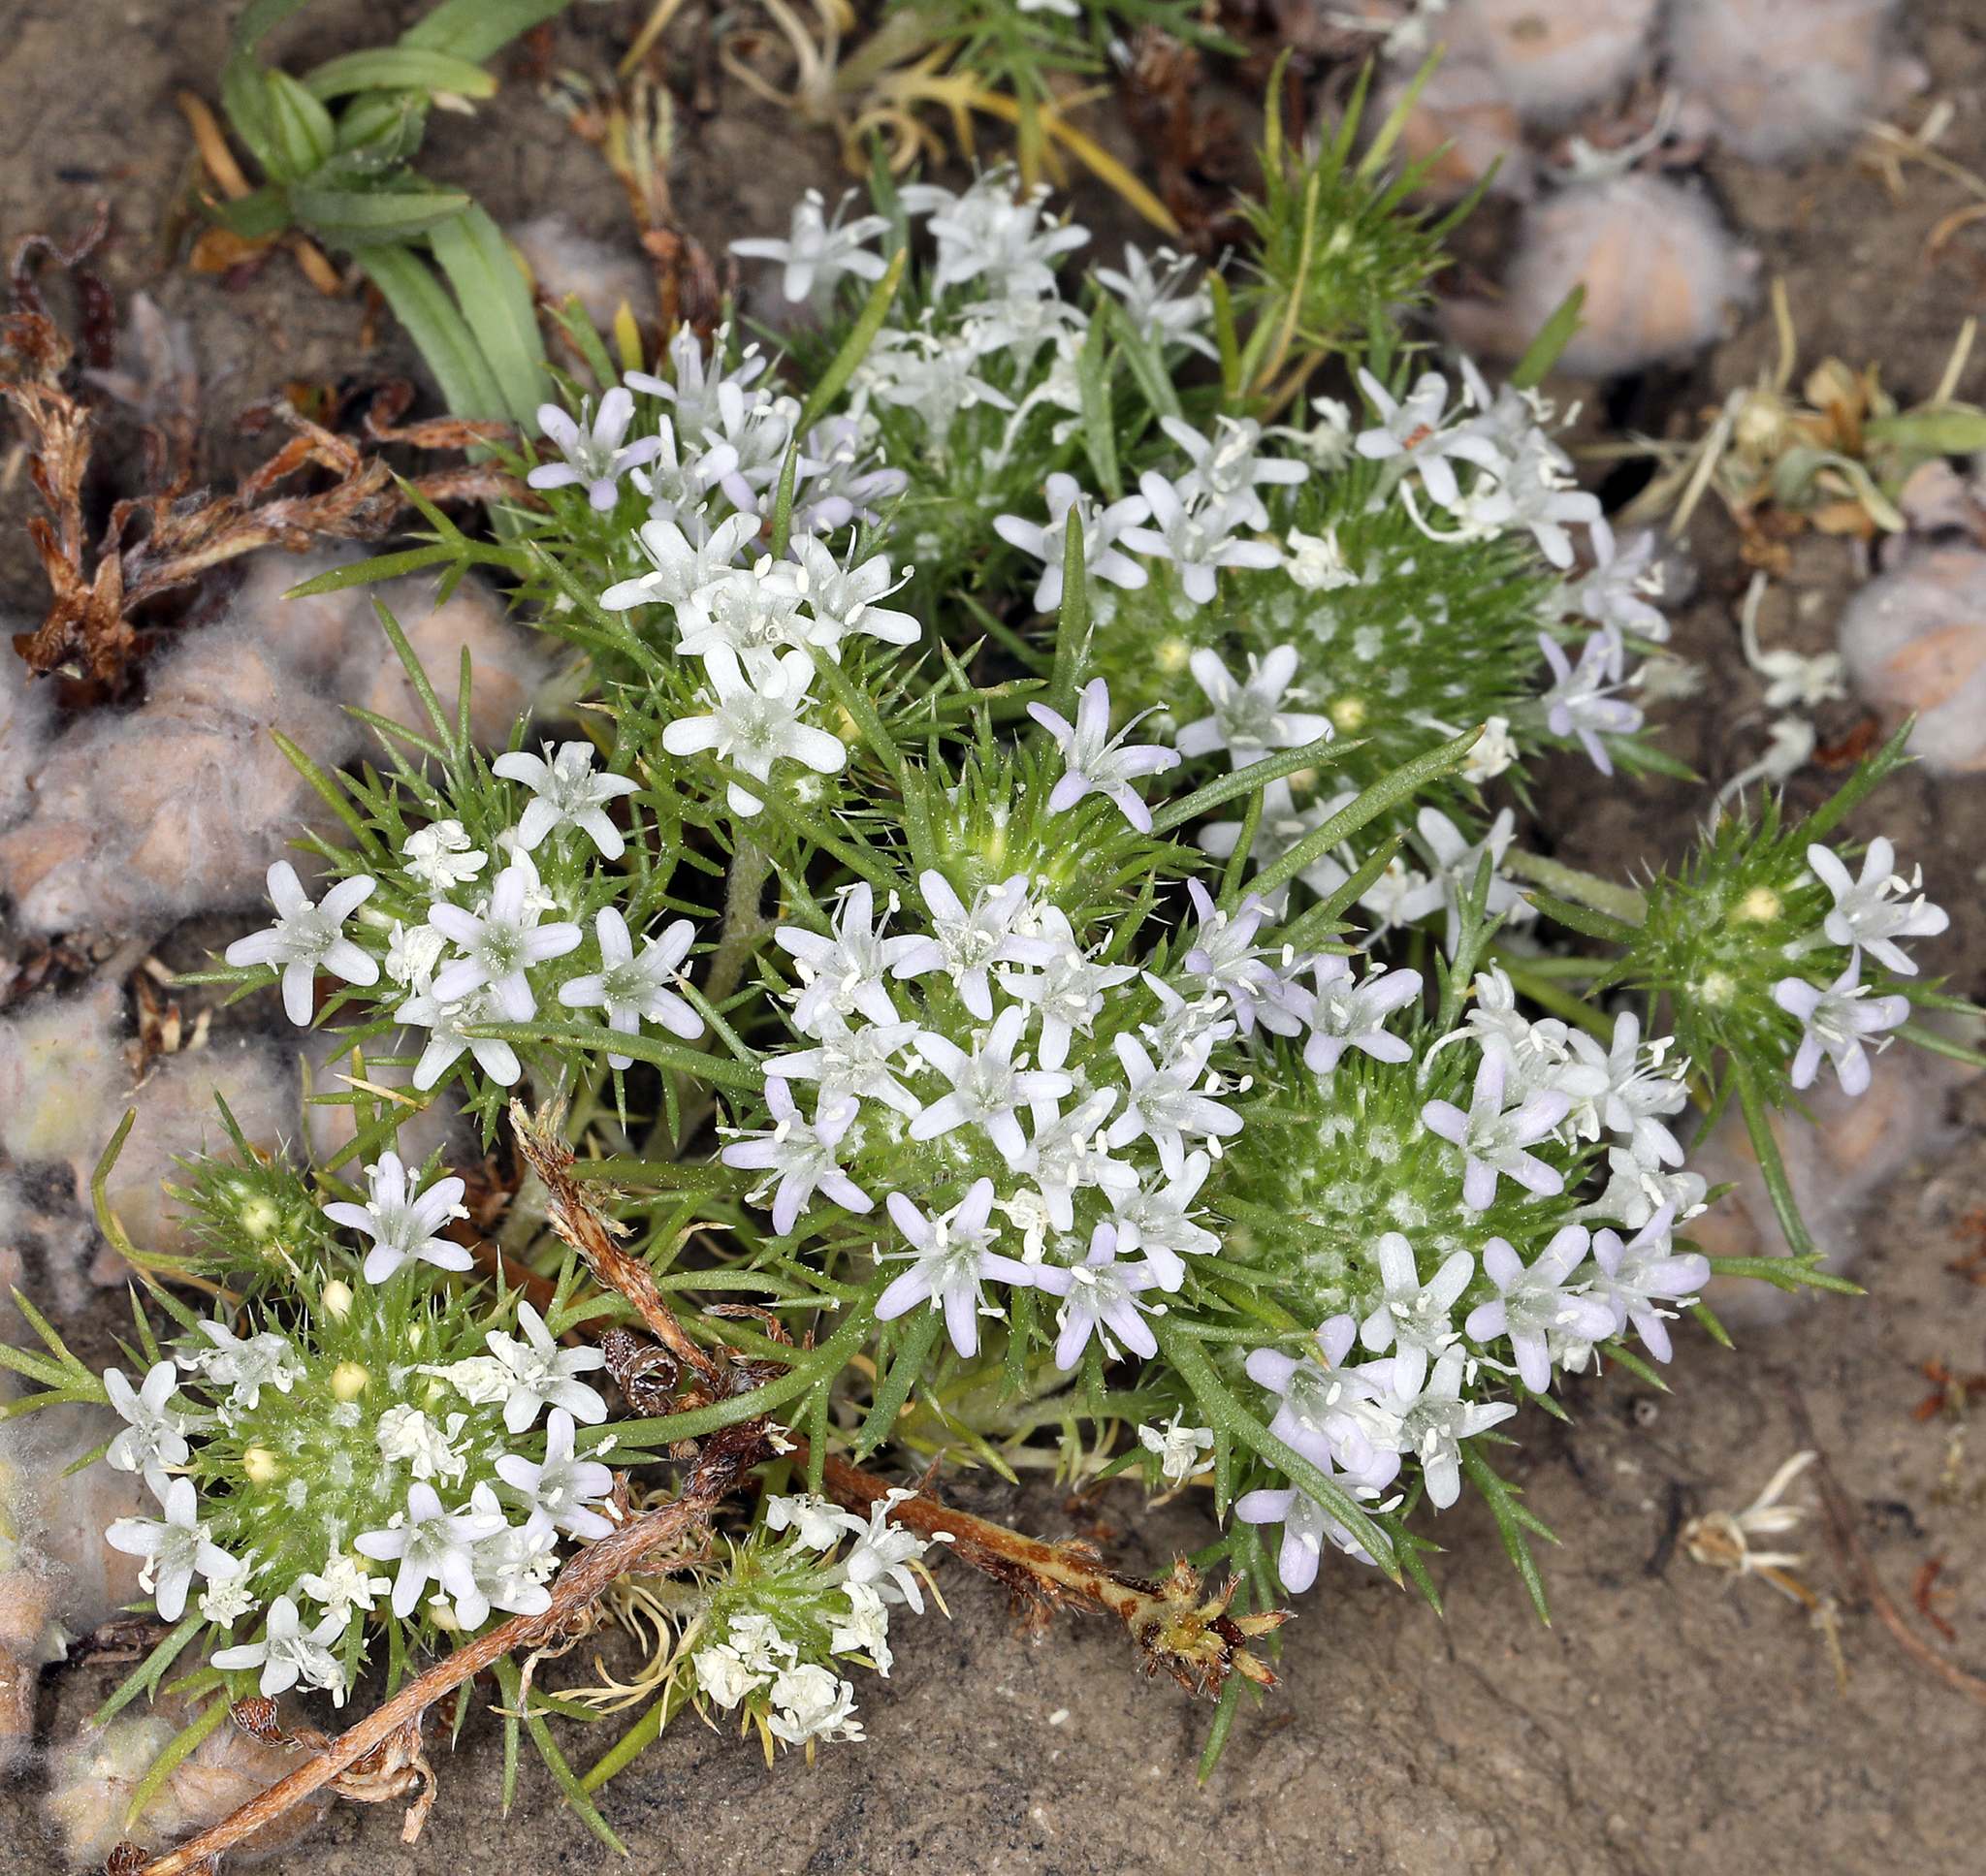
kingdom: Plantae
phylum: Tracheophyta
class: Magnoliopsida
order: Ericales
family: Polemoniaceae
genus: Navarretia
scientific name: Navarretia leucocephala
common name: White-flowered navarretia
